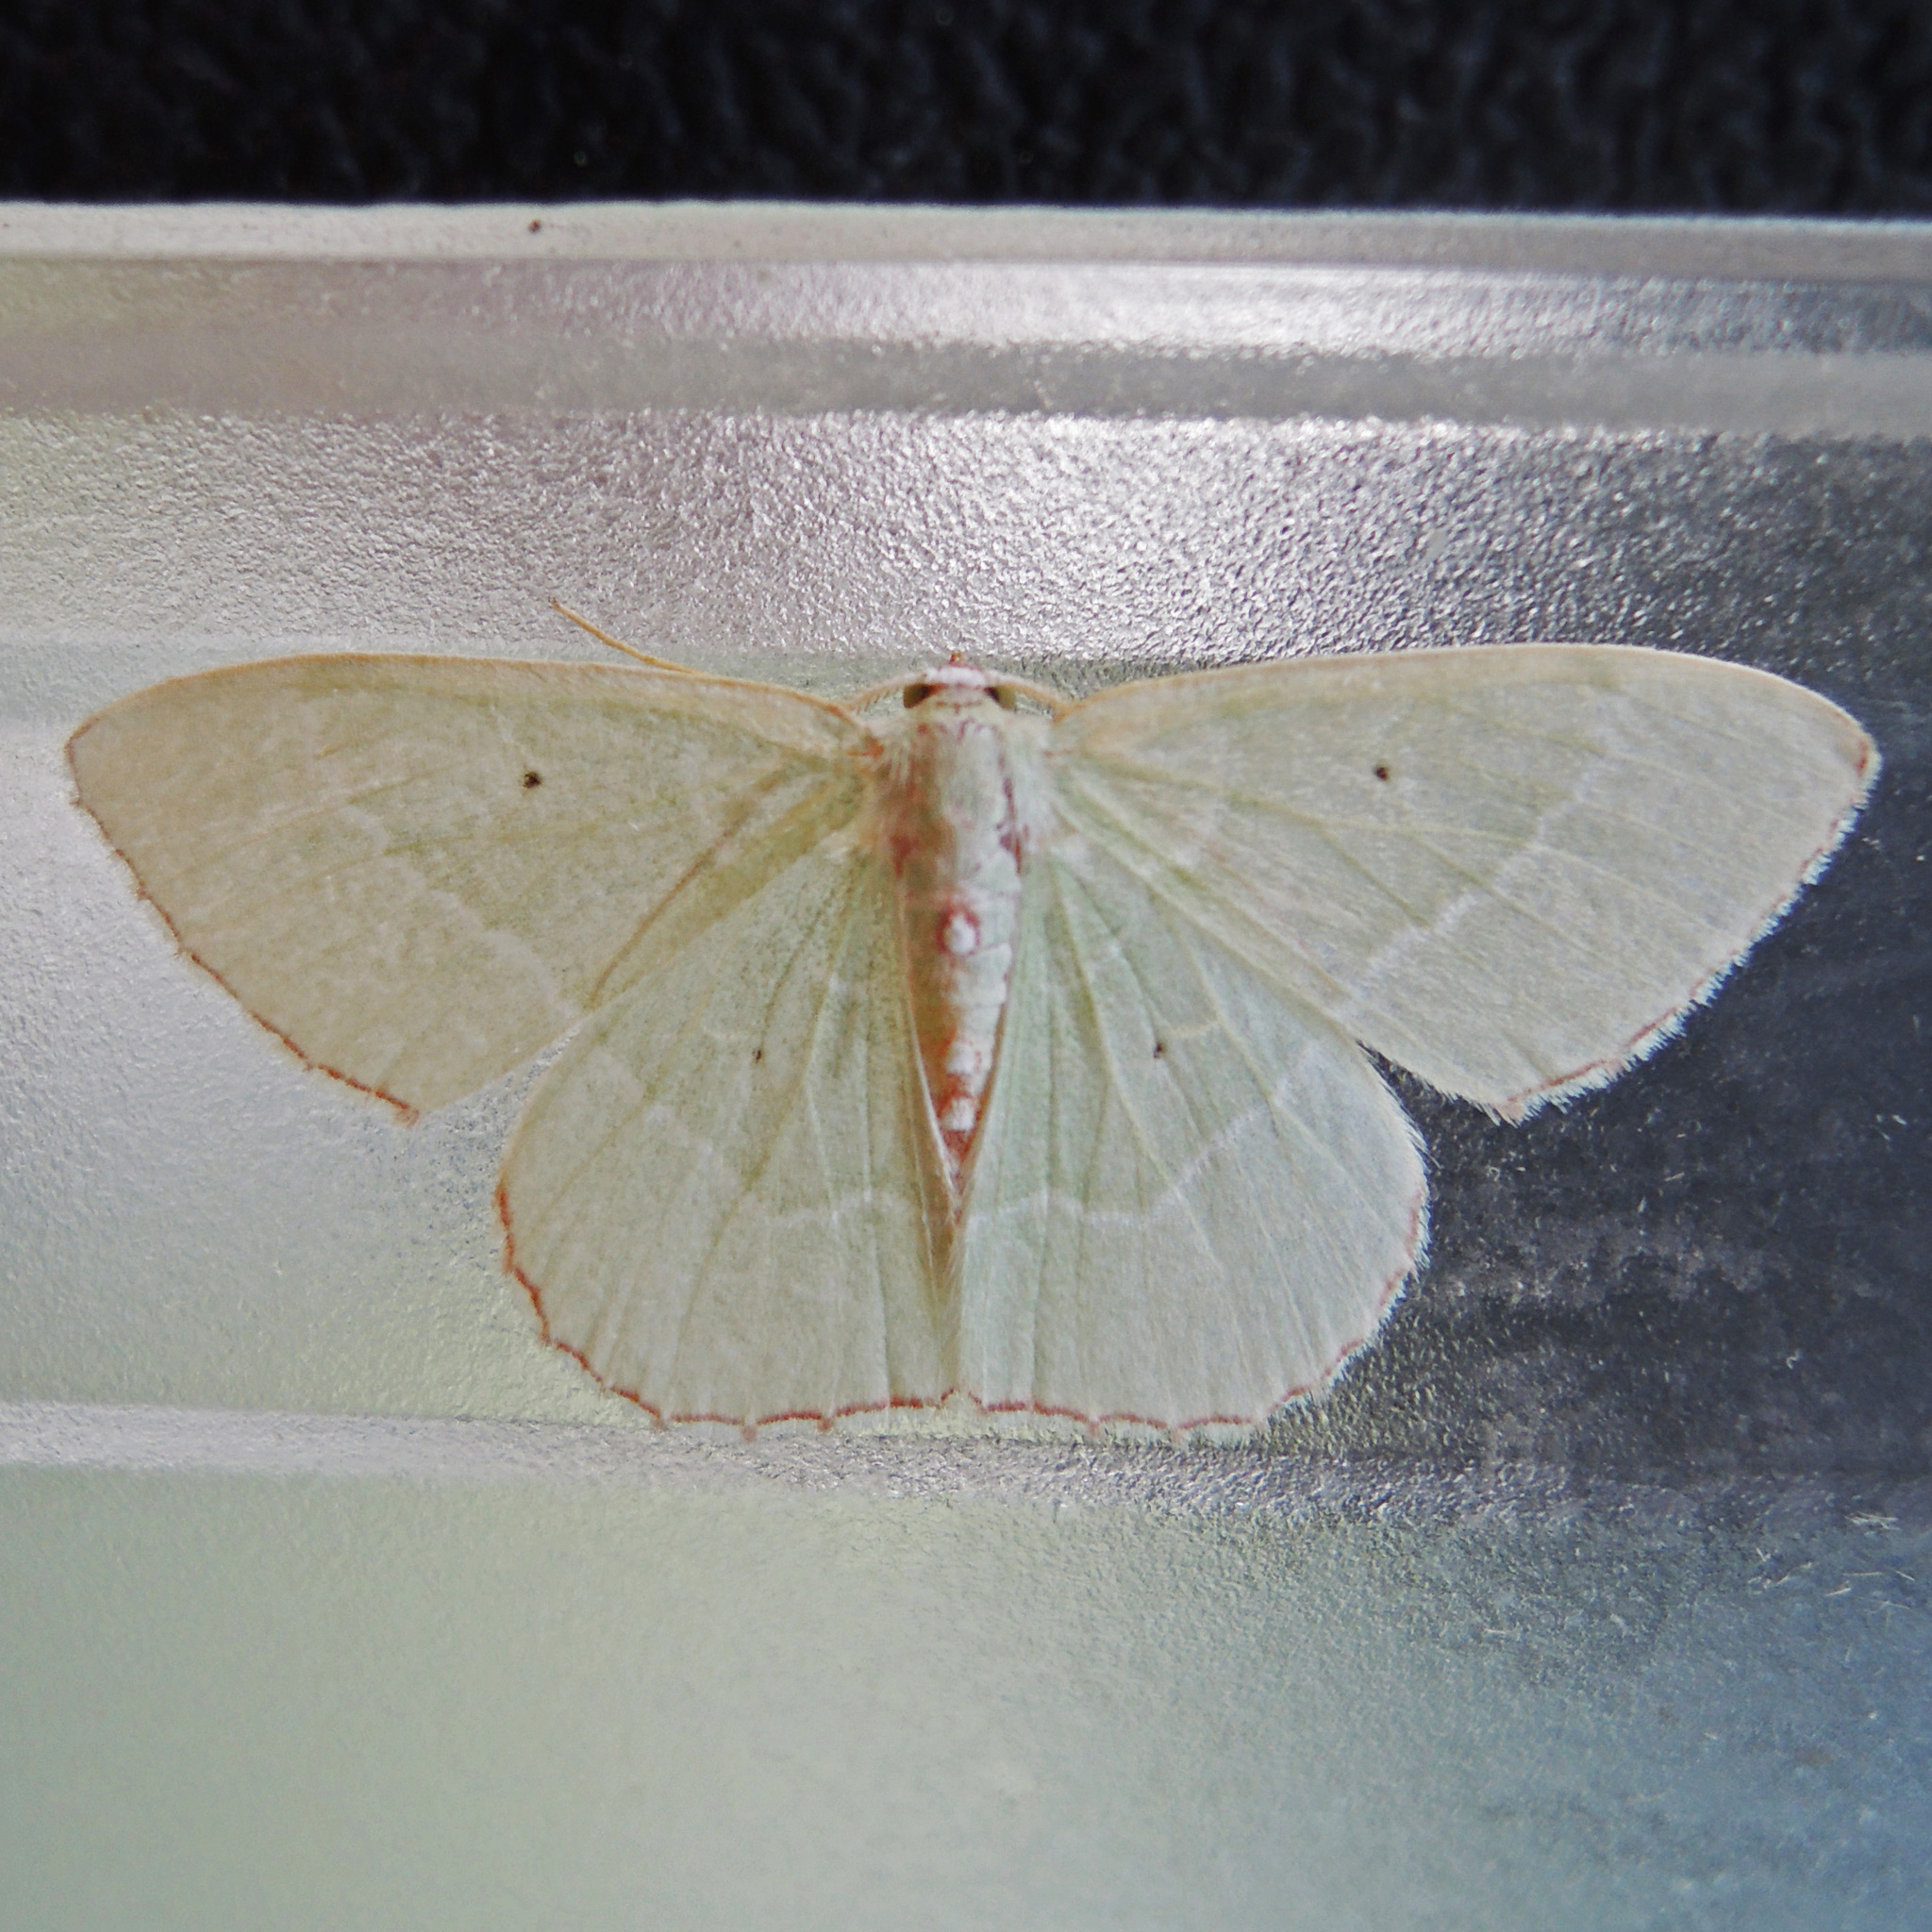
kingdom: Animalia
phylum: Arthropoda
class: Insecta
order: Lepidoptera
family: Geometridae
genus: Nemoria
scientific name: Nemoria lixaria
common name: Red-bordered emerald
